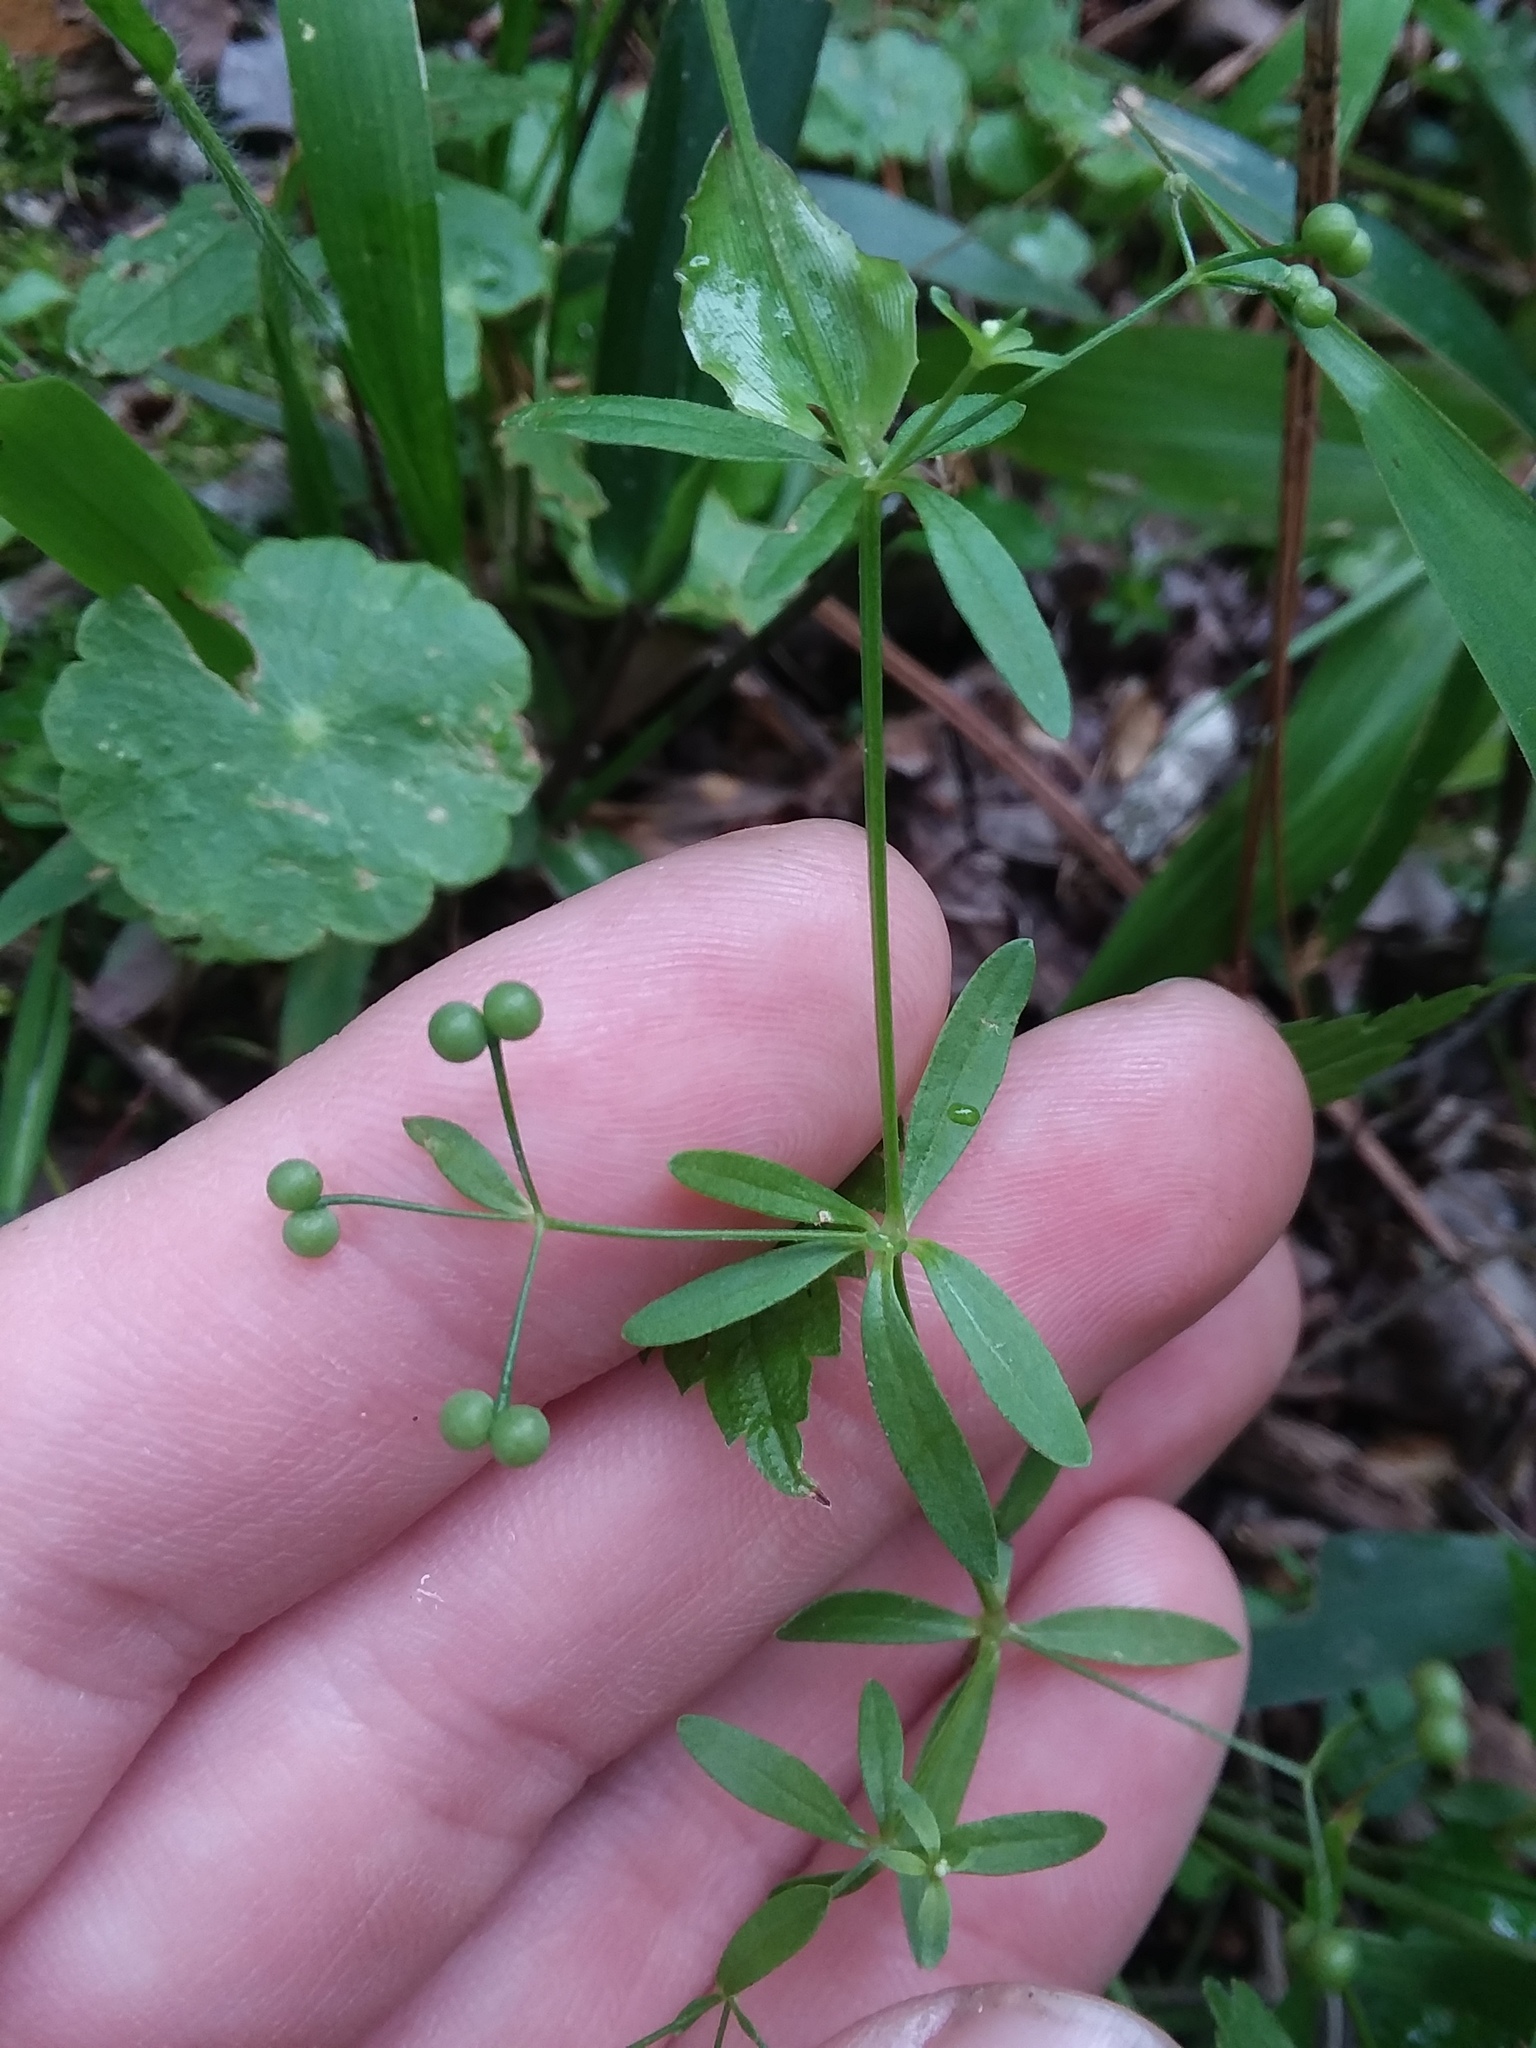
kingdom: Plantae
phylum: Tracheophyta
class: Magnoliopsida
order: Gentianales
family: Rubiaceae
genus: Galium
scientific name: Galium tinctorium
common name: Bedstraw
